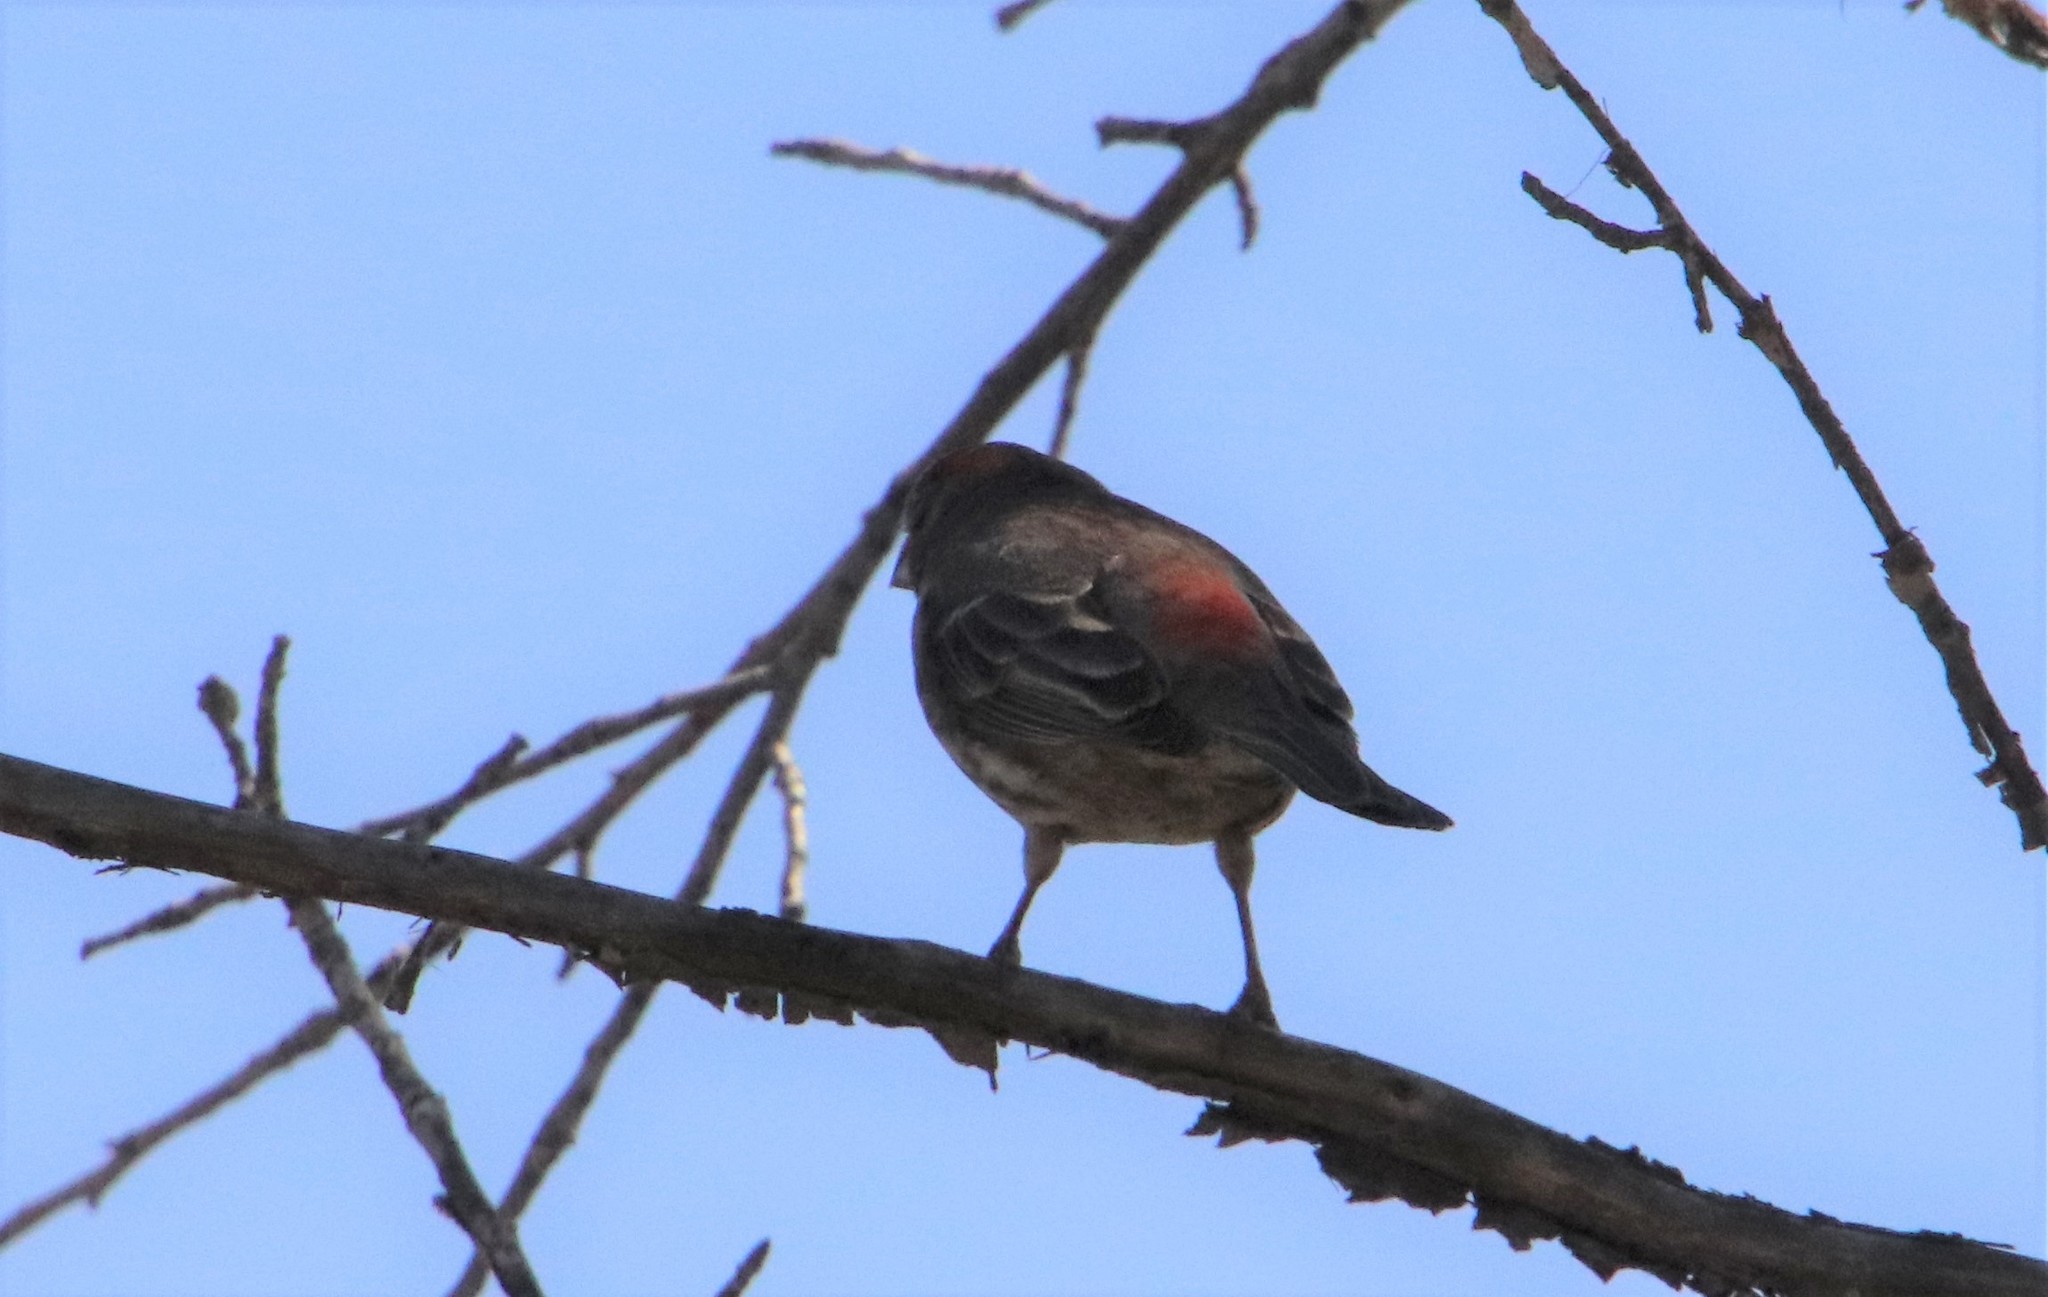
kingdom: Animalia
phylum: Chordata
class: Aves
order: Passeriformes
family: Fringillidae
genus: Haemorhous
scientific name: Haemorhous mexicanus
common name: House finch
